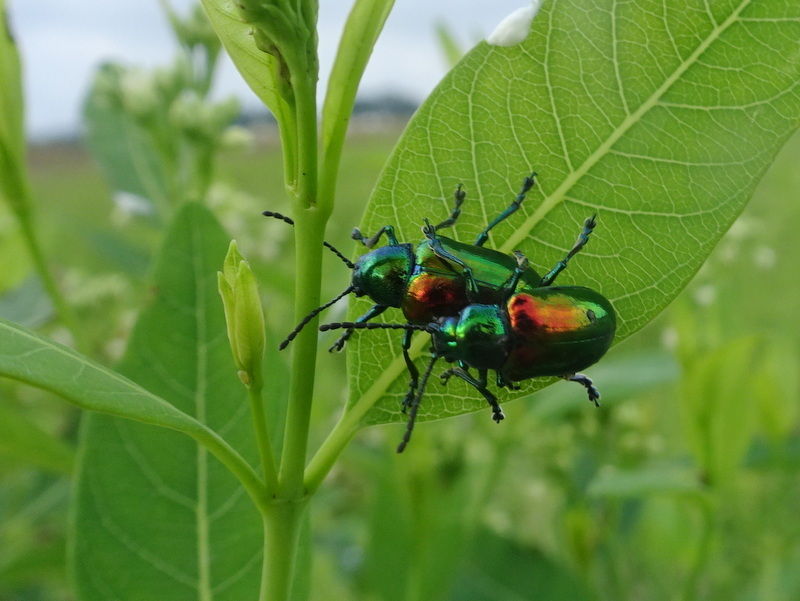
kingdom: Animalia
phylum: Arthropoda
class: Insecta
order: Coleoptera
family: Chrysomelidae
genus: Chrysochus
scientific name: Chrysochus auratus
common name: Dogbane leaf beetle
